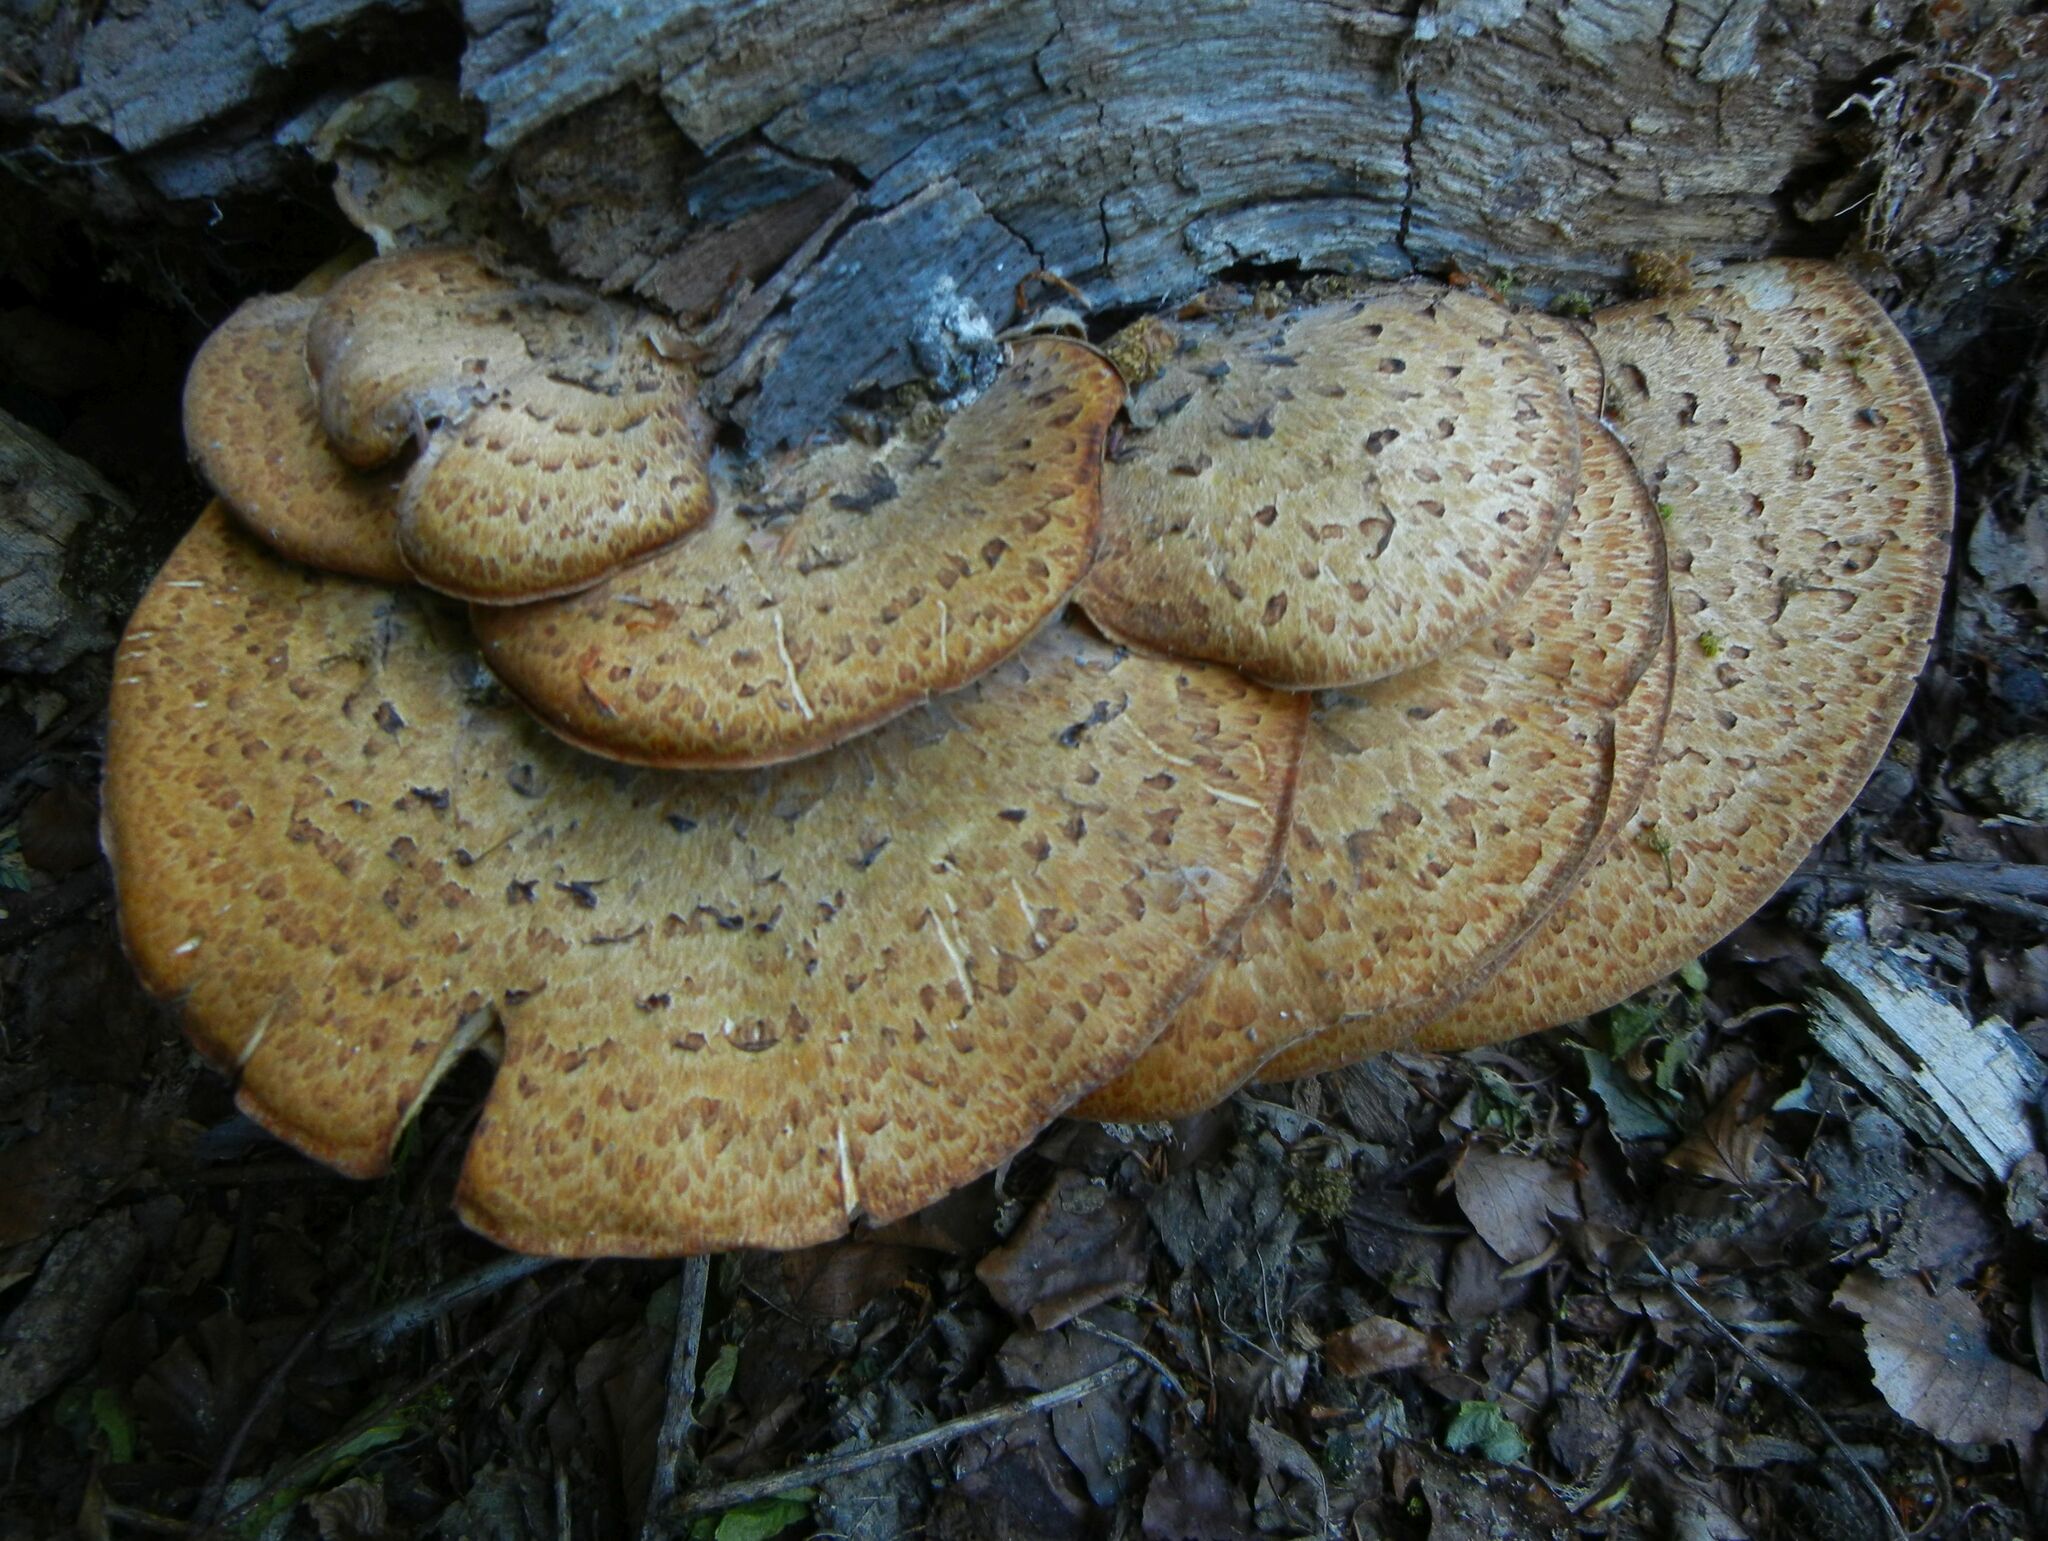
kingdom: Fungi
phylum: Basidiomycota
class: Agaricomycetes
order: Polyporales
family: Polyporaceae
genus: Cerioporus
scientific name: Cerioporus squamosus
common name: Dryad's saddle
